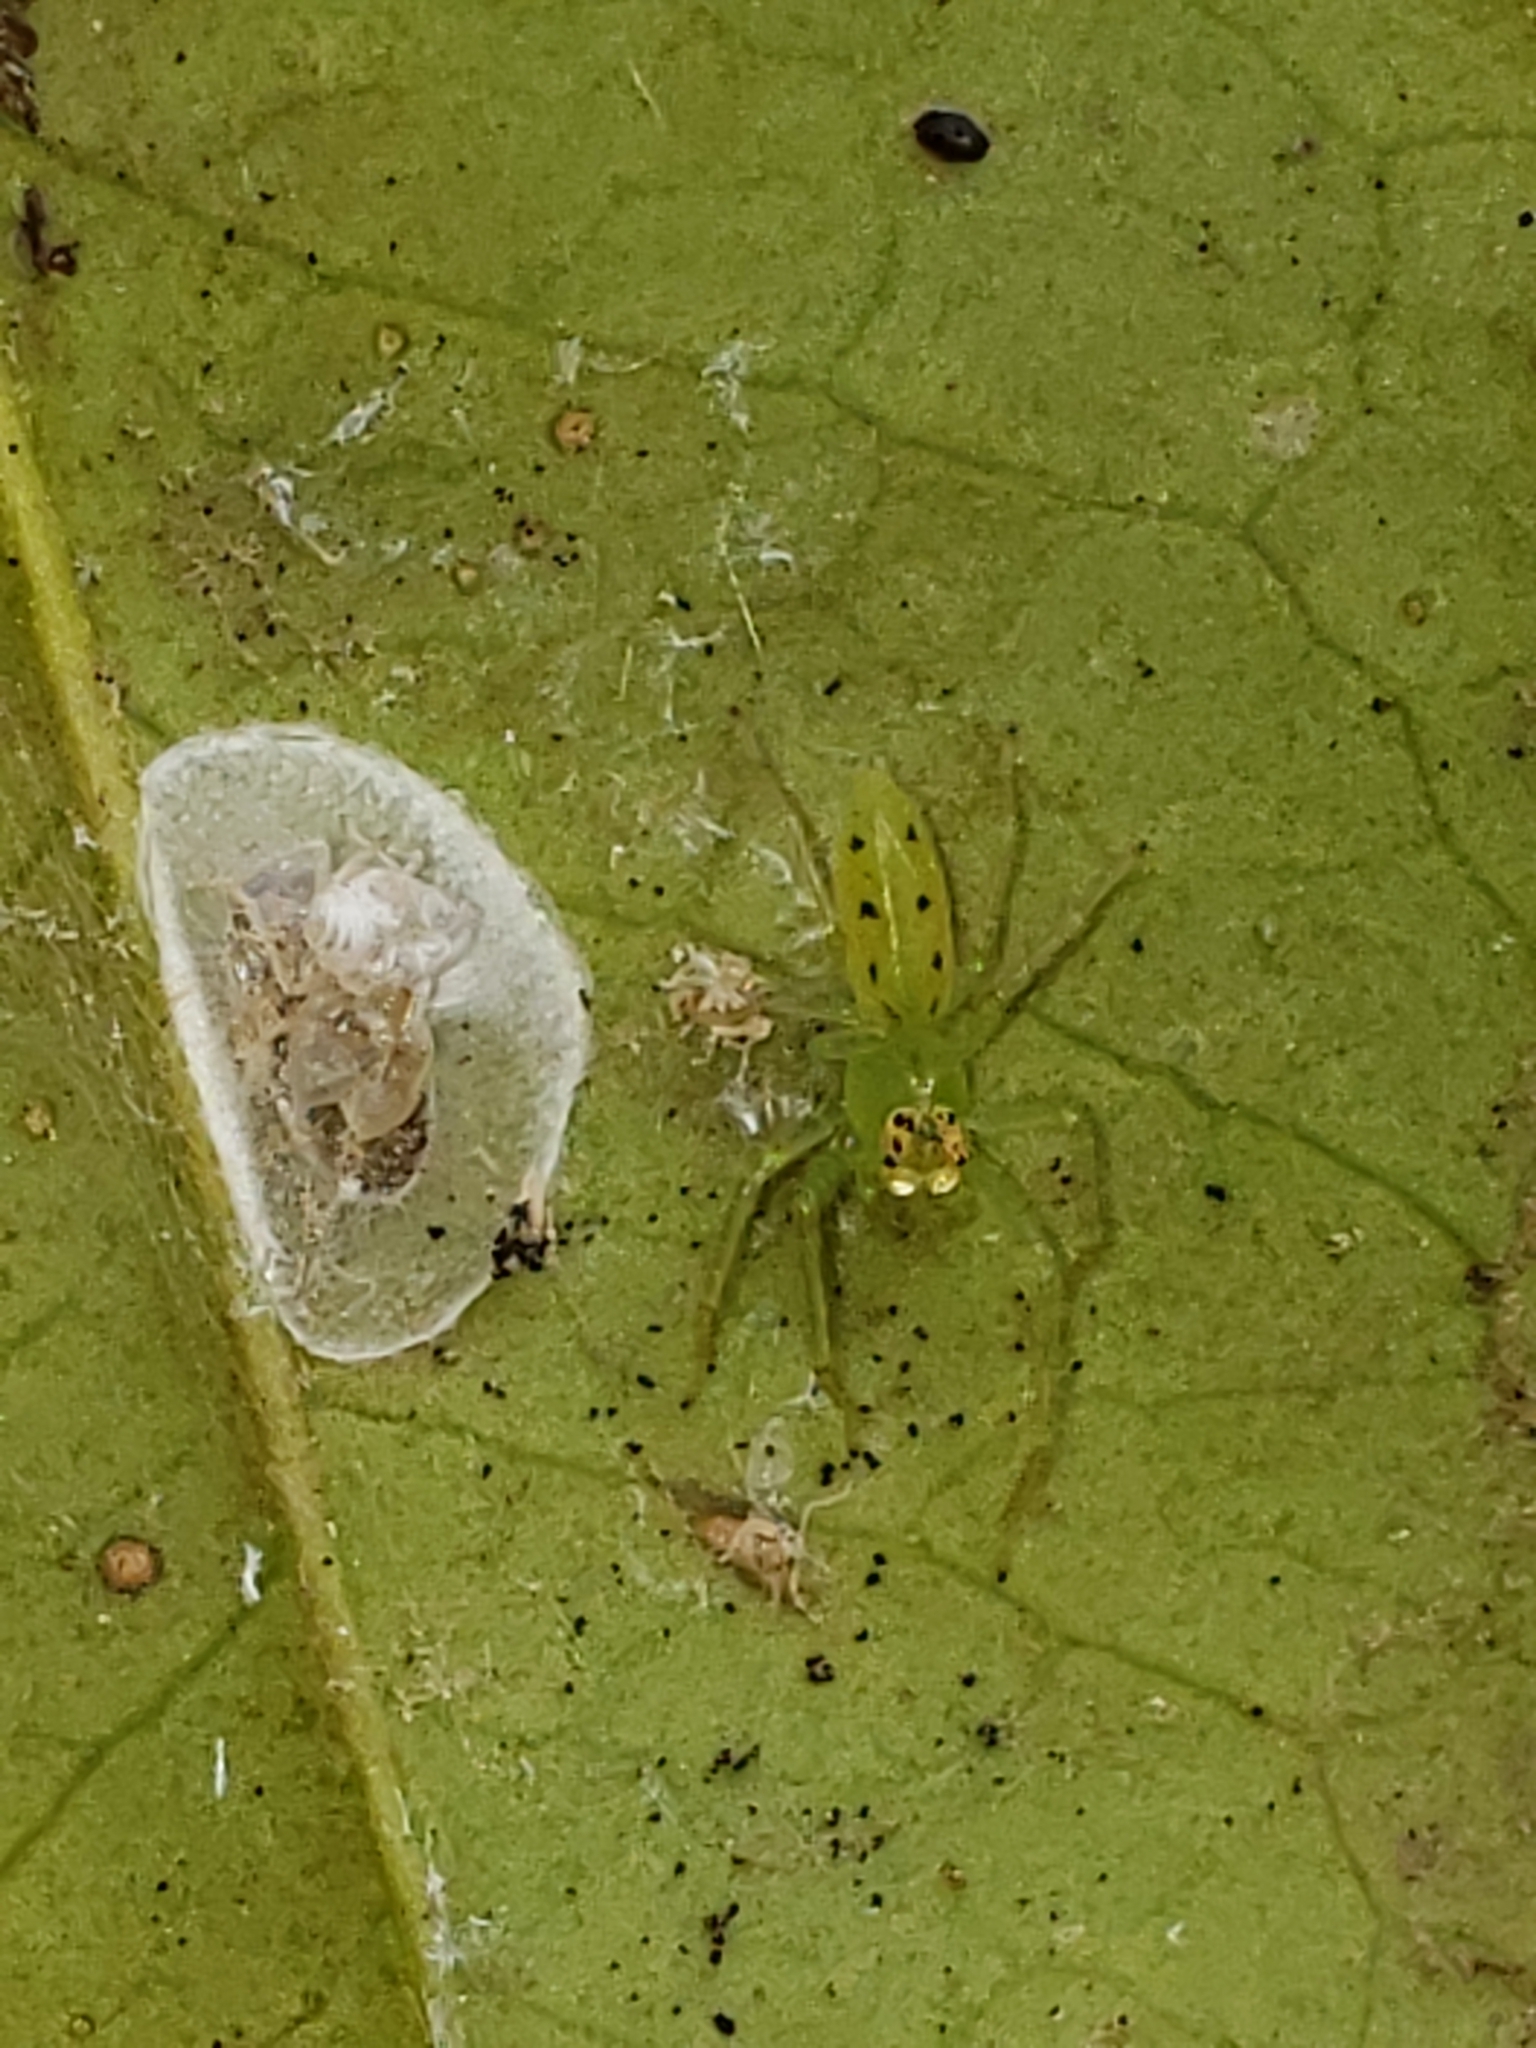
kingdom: Animalia
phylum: Arthropoda
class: Arachnida
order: Araneae
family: Salticidae
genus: Lyssomanes
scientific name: Lyssomanes viridis
